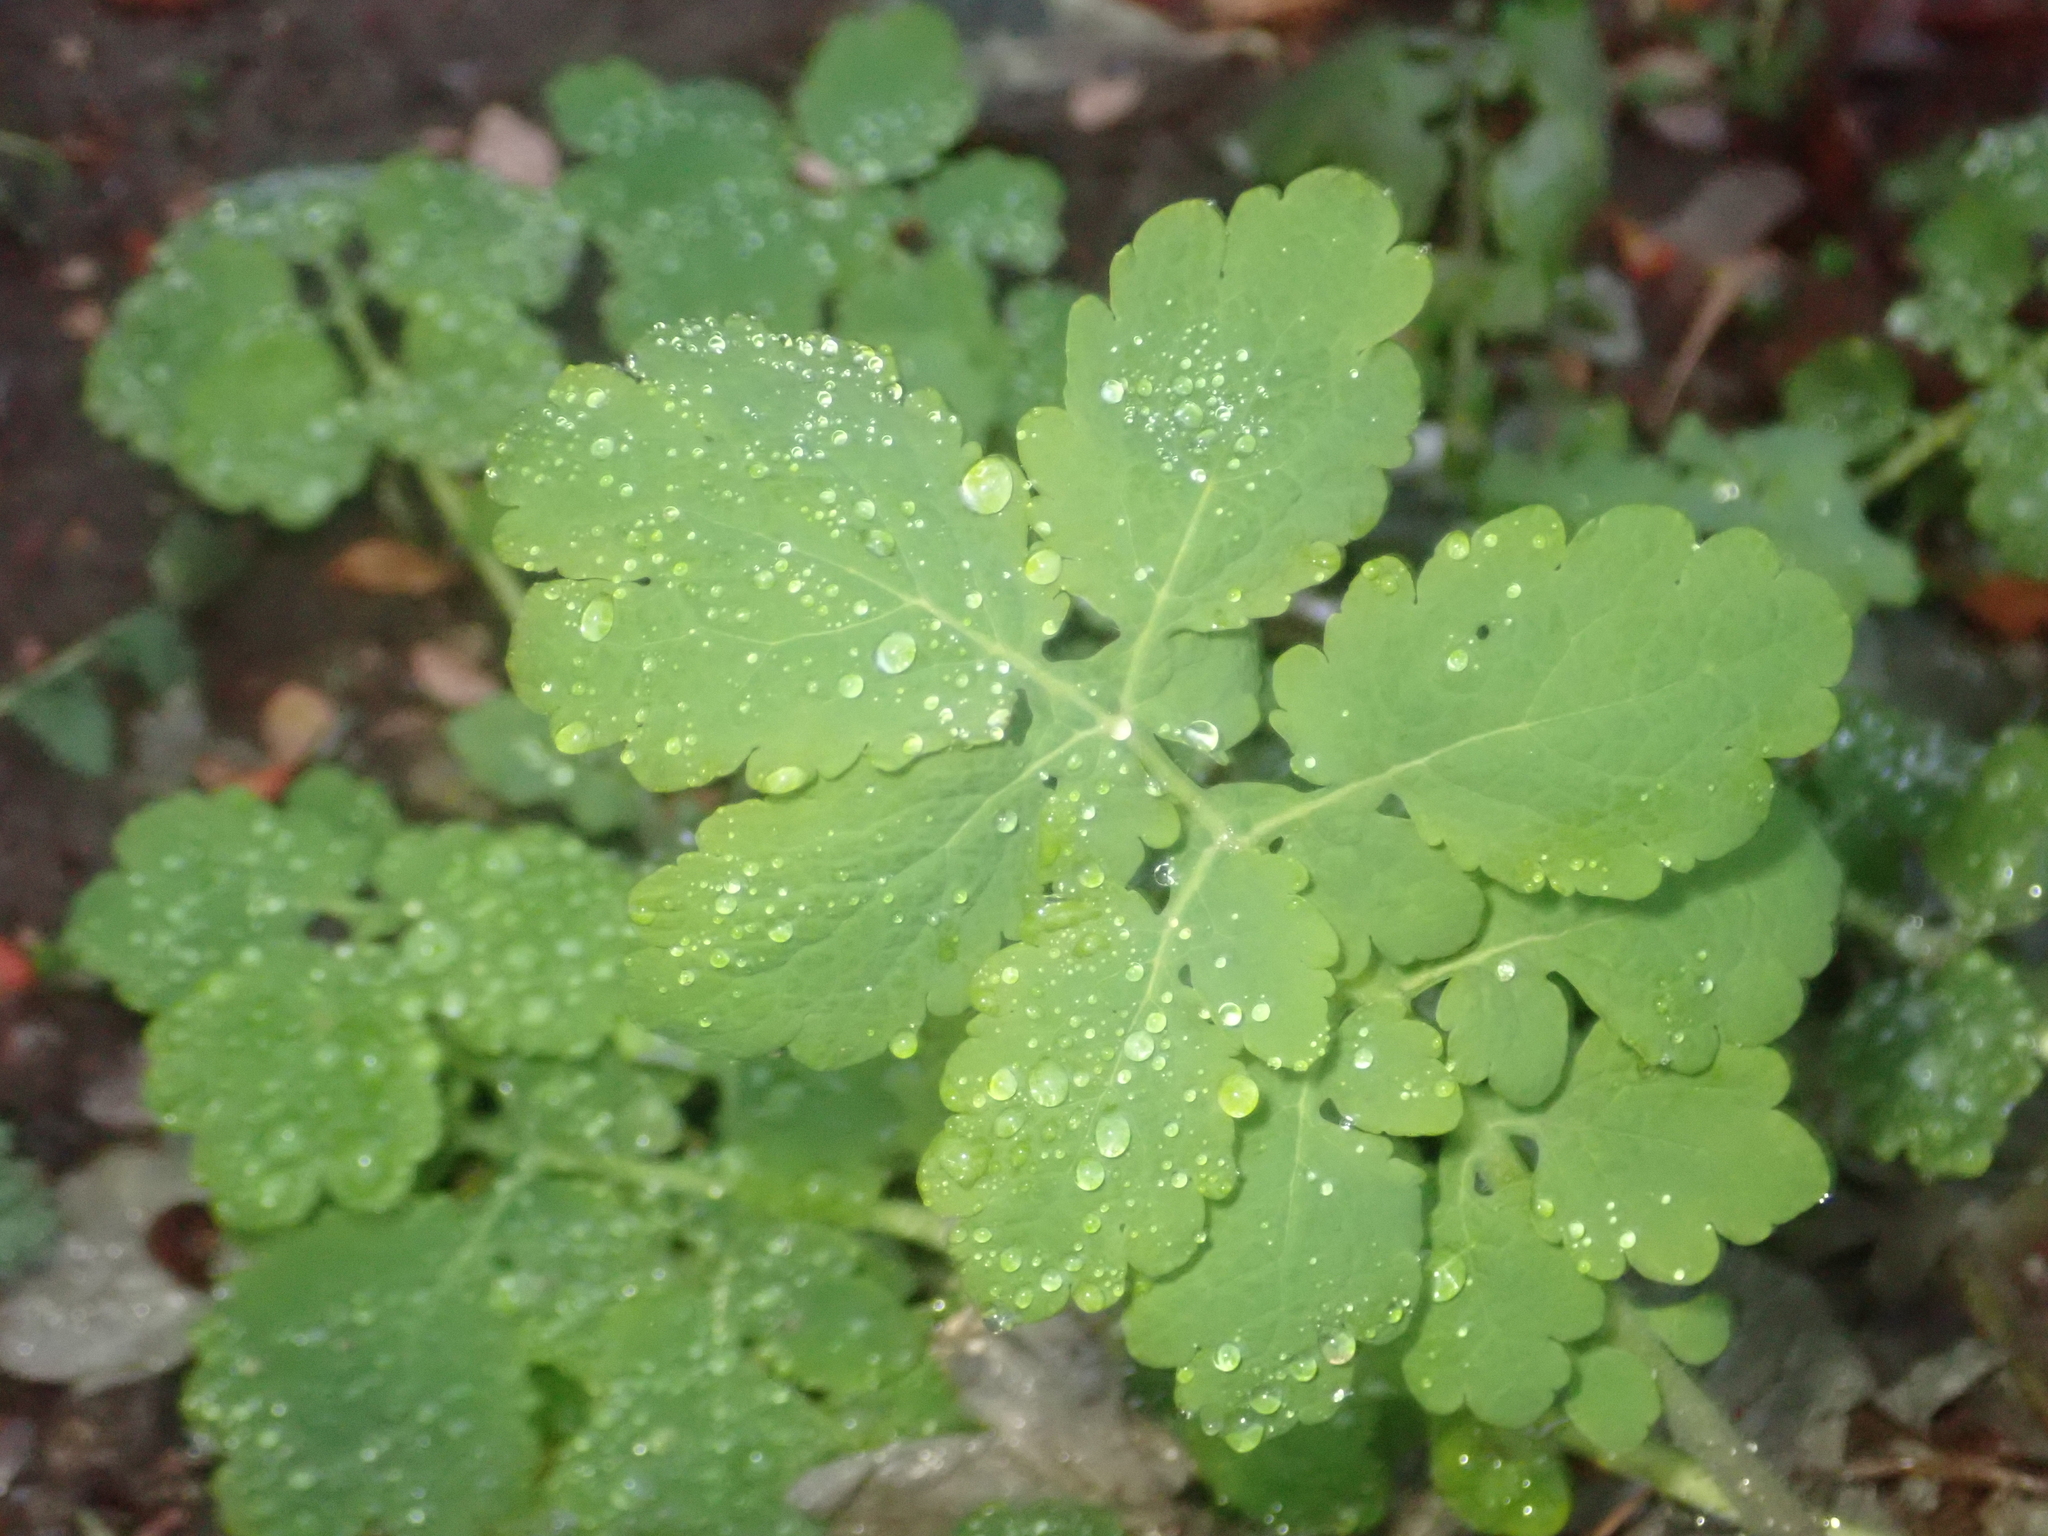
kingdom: Plantae
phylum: Tracheophyta
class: Magnoliopsida
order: Ranunculales
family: Papaveraceae
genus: Chelidonium
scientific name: Chelidonium majus
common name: Greater celandine
